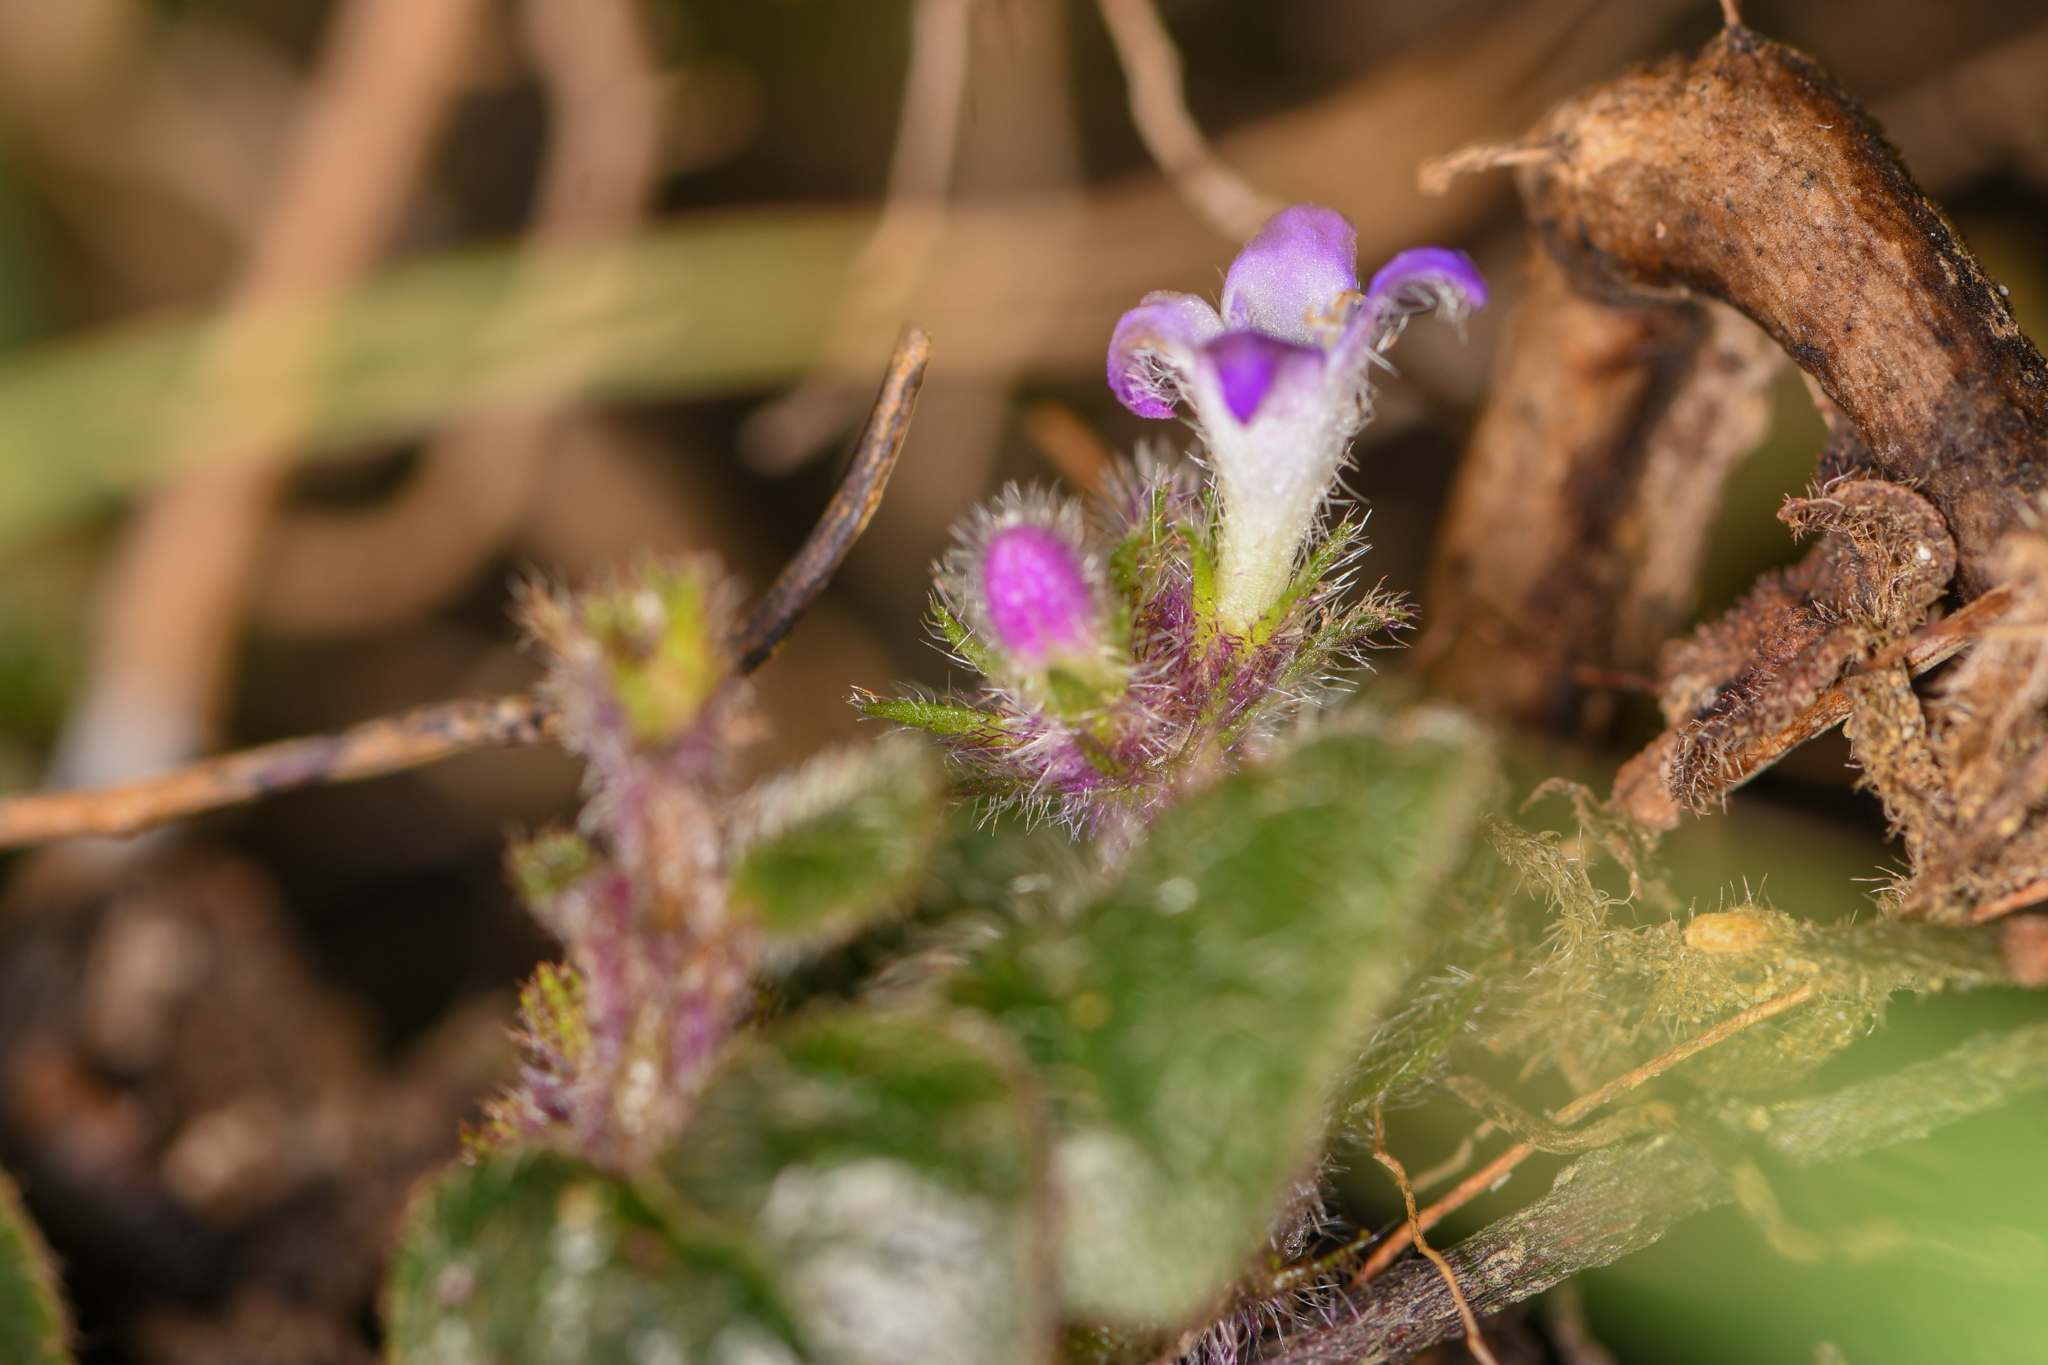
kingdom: Plantae
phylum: Tracheophyta
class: Magnoliopsida
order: Gentianales
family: Rubiaceae
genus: Coccocypselum
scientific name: Coccocypselum cordifolium
